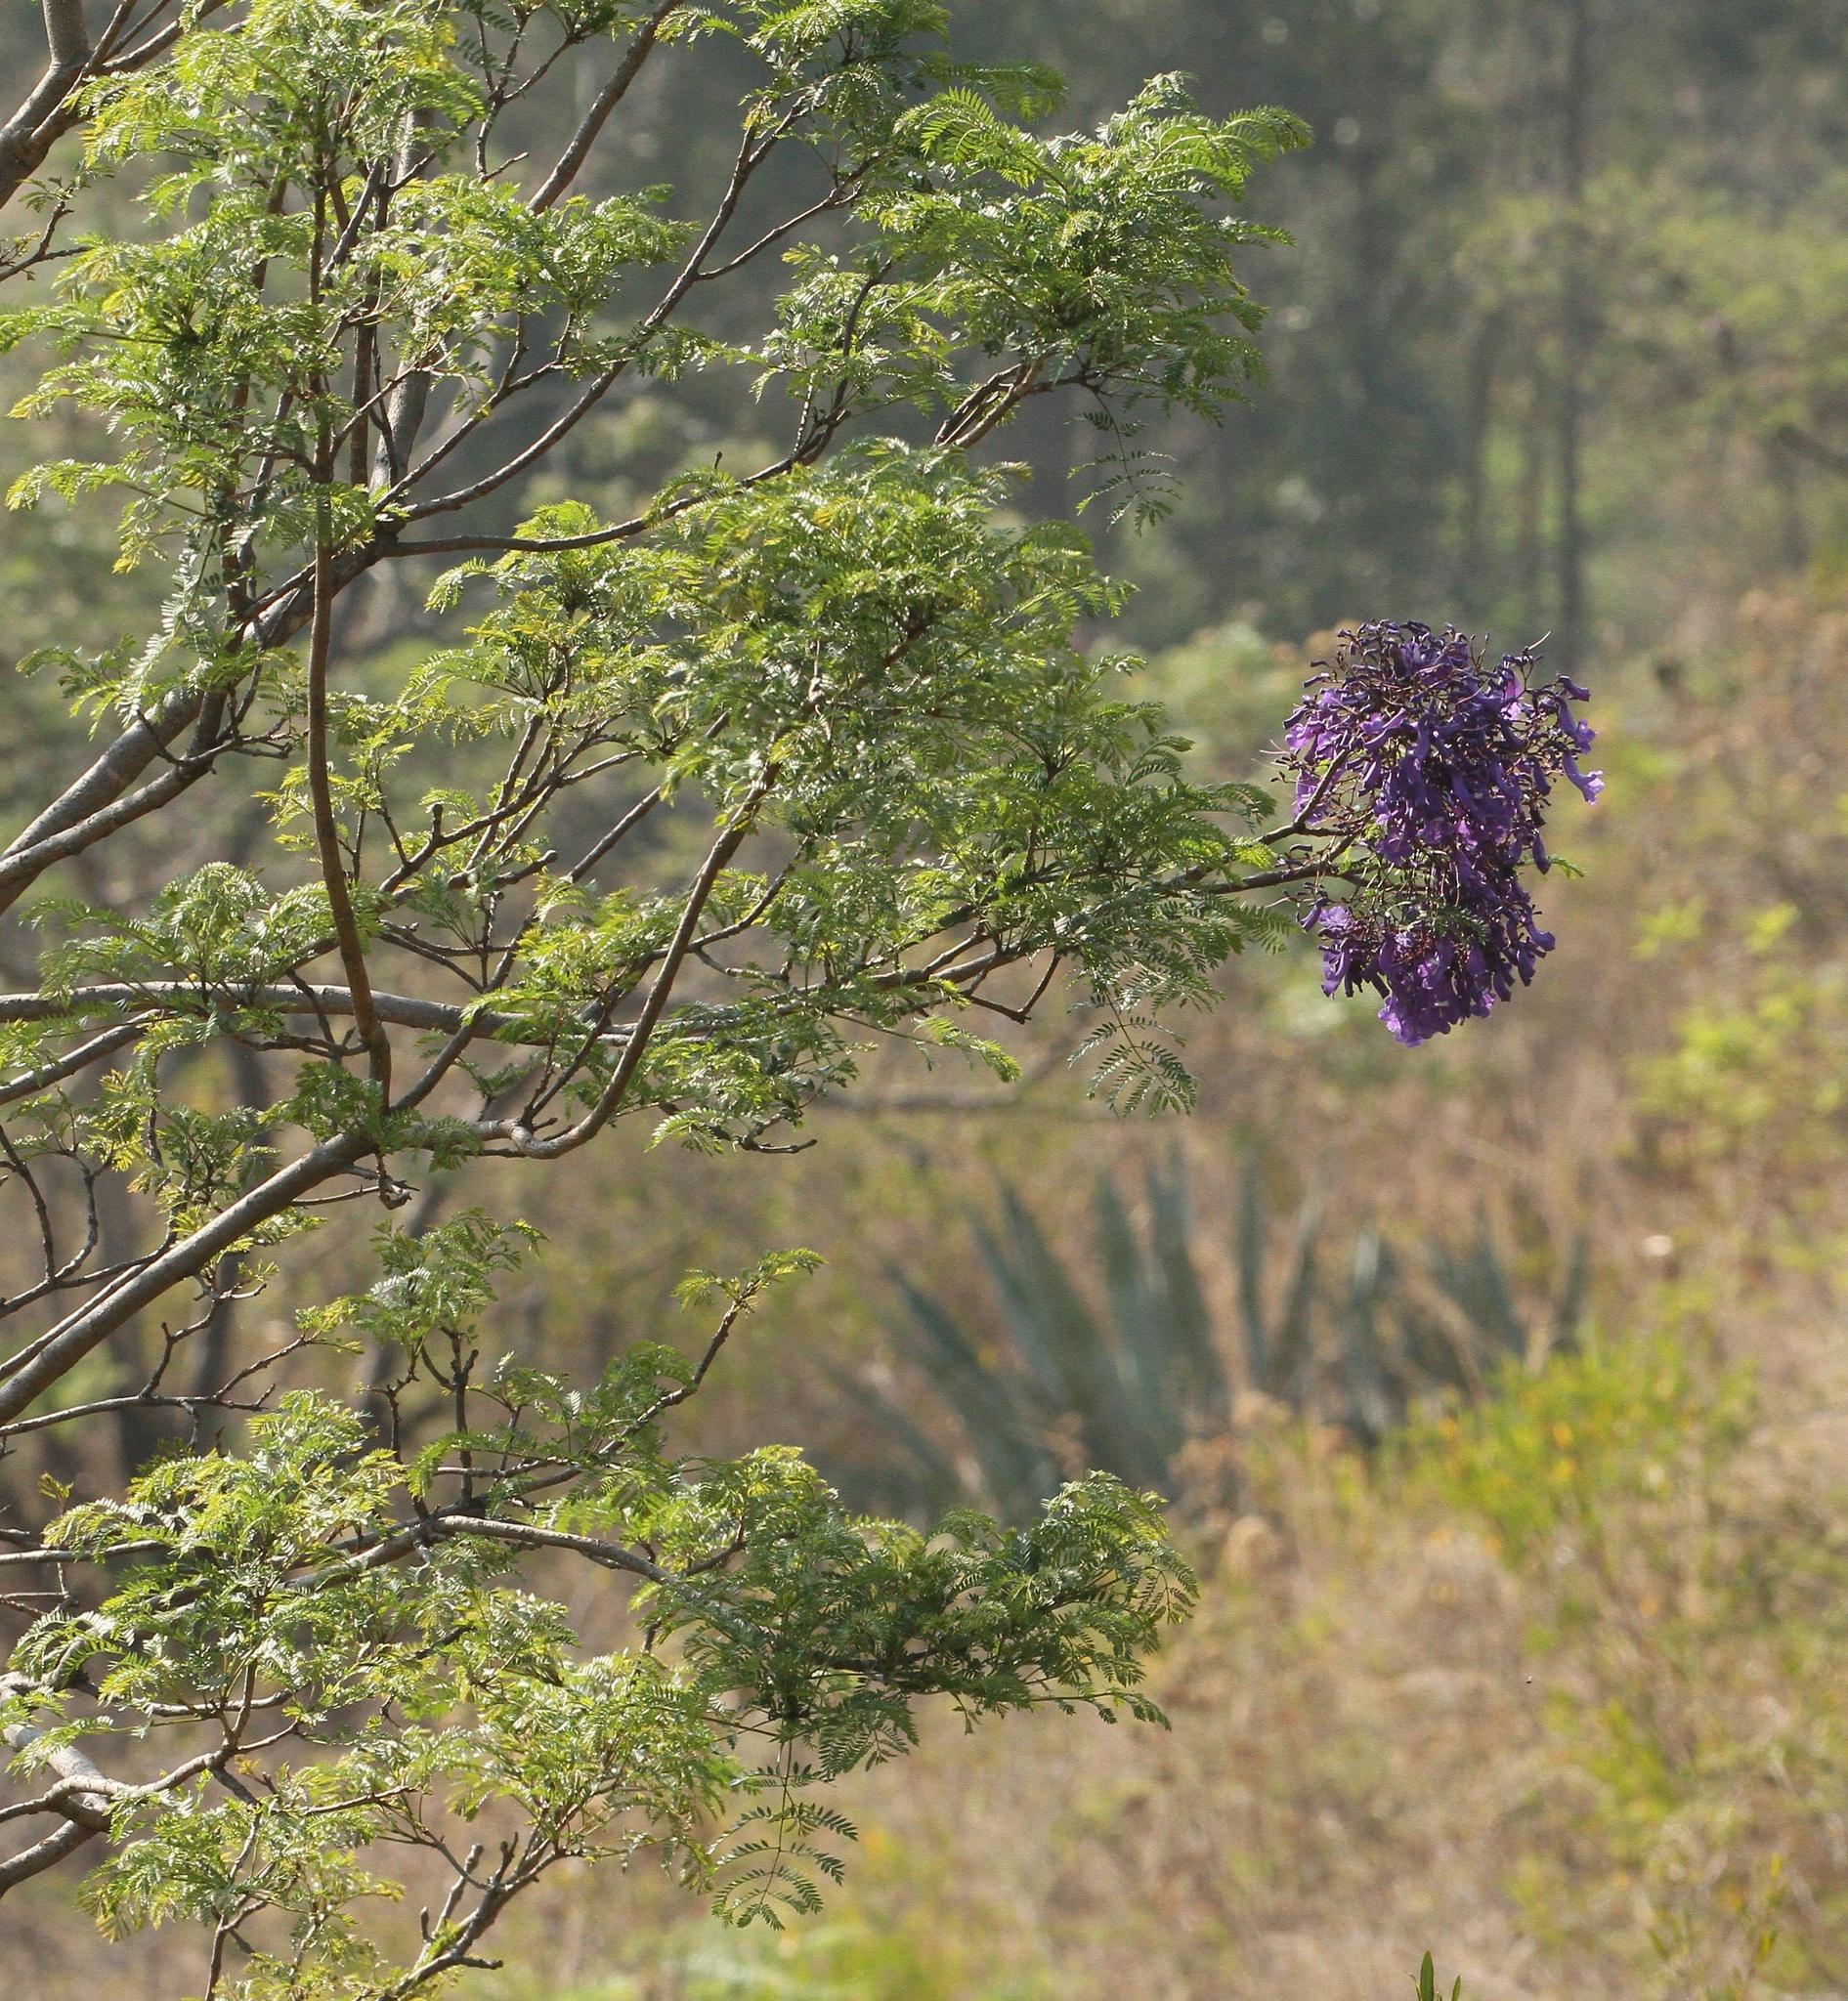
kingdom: Plantae
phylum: Tracheophyta
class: Magnoliopsida
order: Lamiales
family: Bignoniaceae
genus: Jacaranda
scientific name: Jacaranda acutifolia
